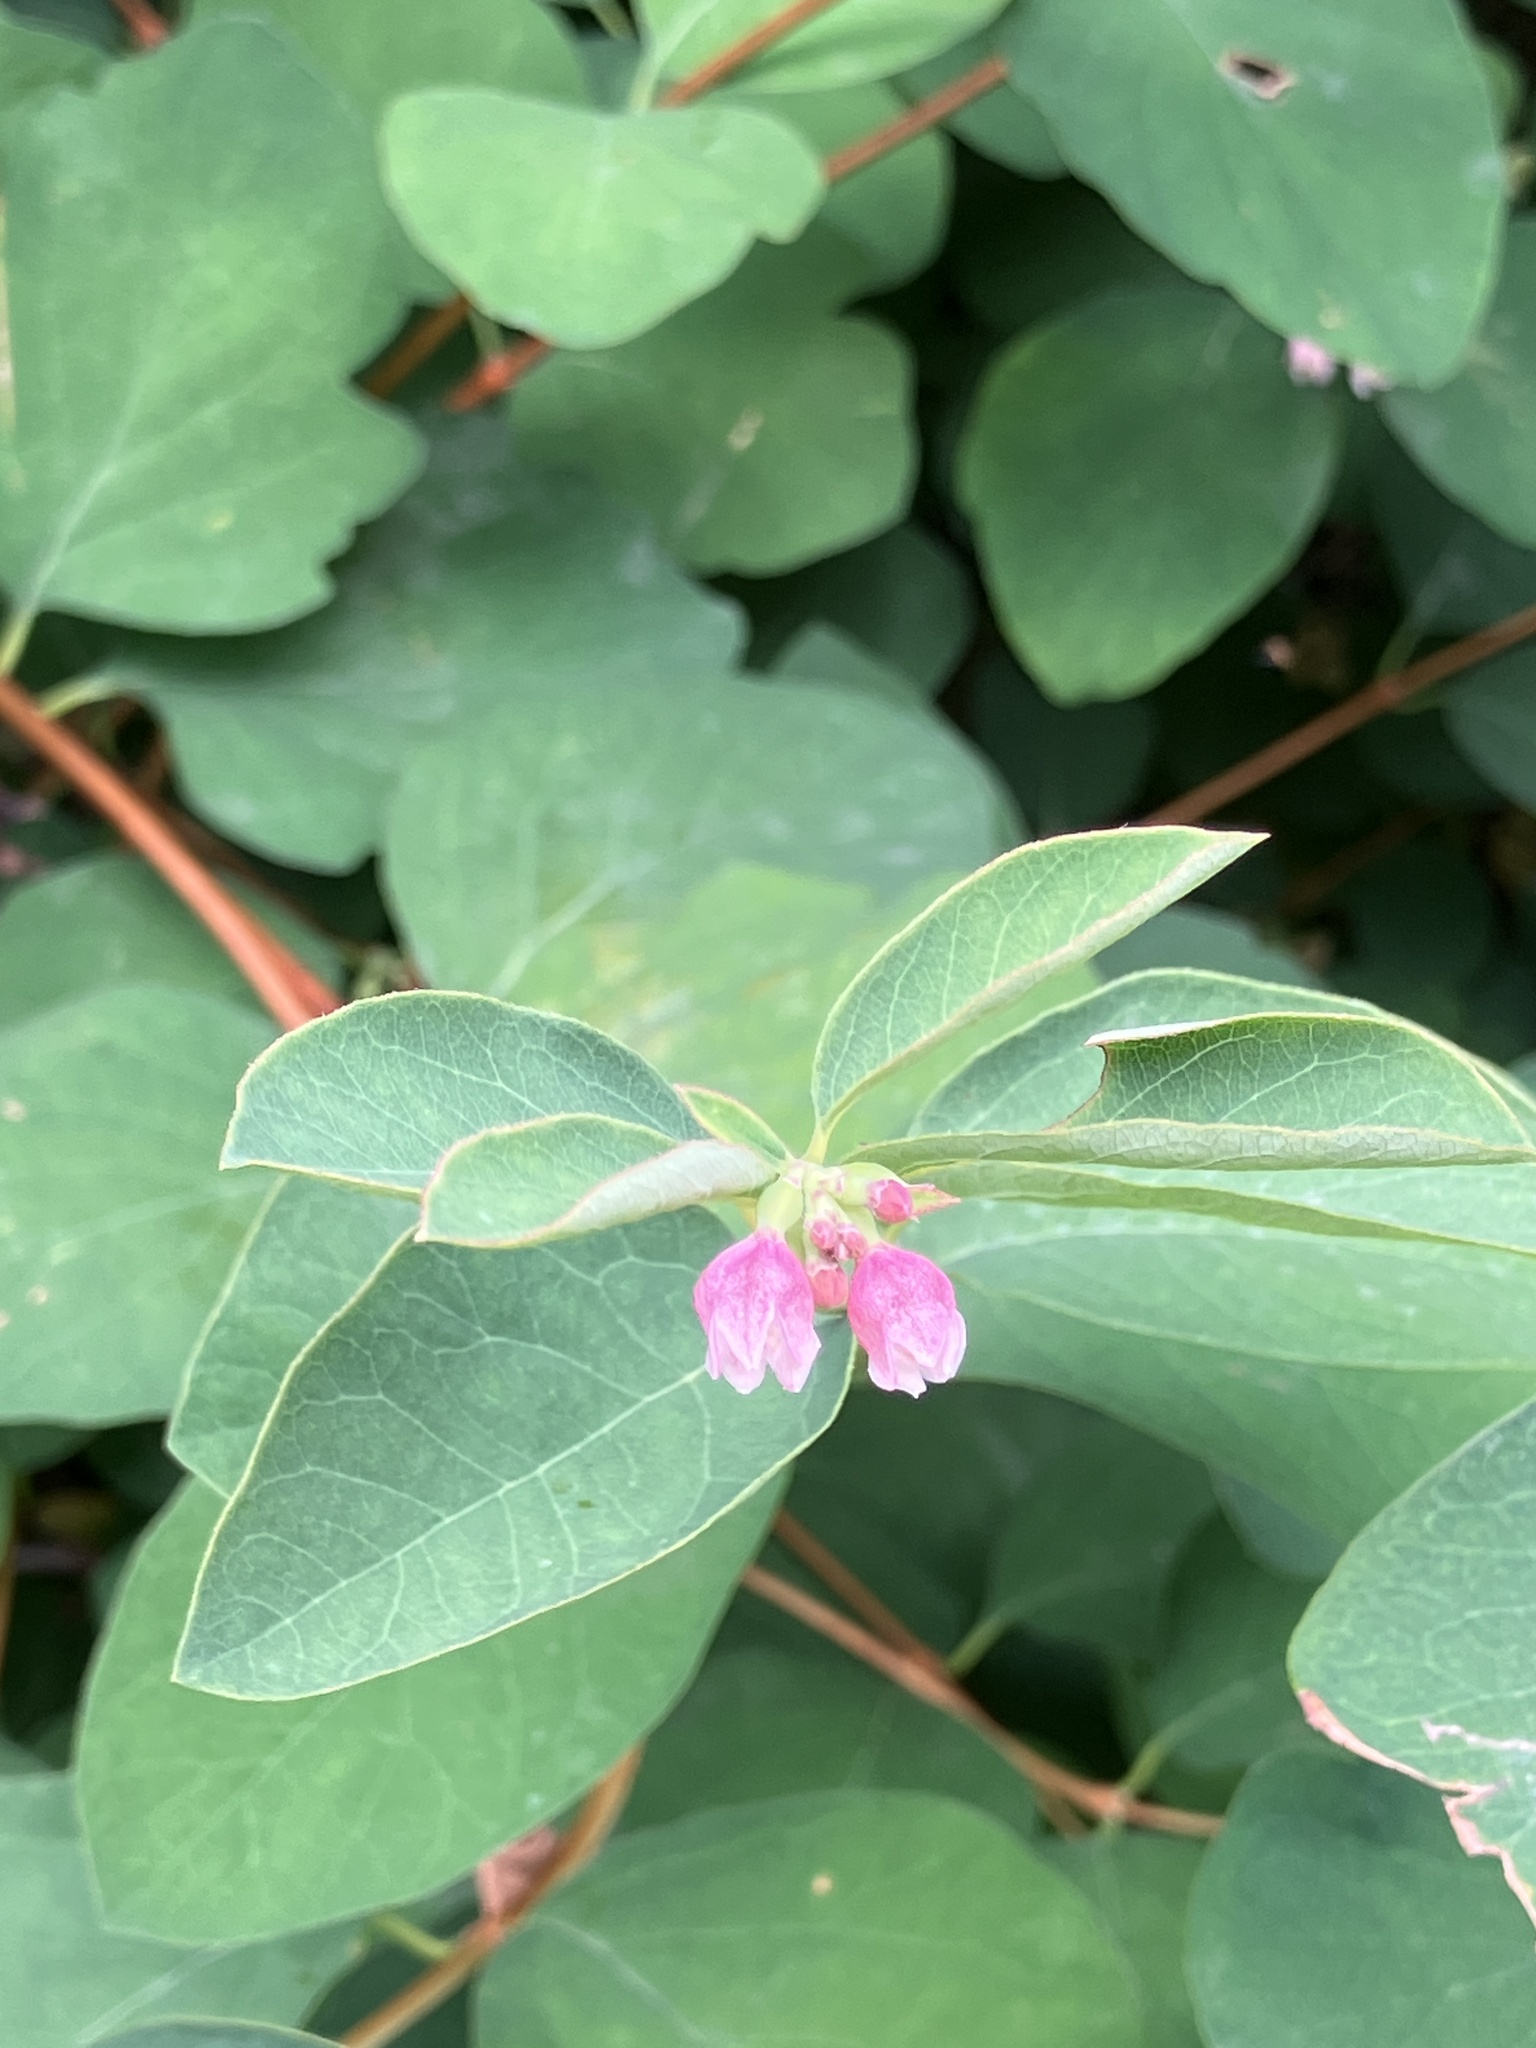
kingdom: Plantae
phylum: Tracheophyta
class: Magnoliopsida
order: Dipsacales
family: Caprifoliaceae
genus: Symphoricarpos
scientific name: Symphoricarpos albus
